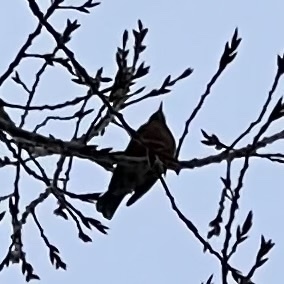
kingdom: Animalia
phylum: Chordata
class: Aves
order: Passeriformes
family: Turdidae
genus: Turdus
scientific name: Turdus migratorius
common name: American robin
